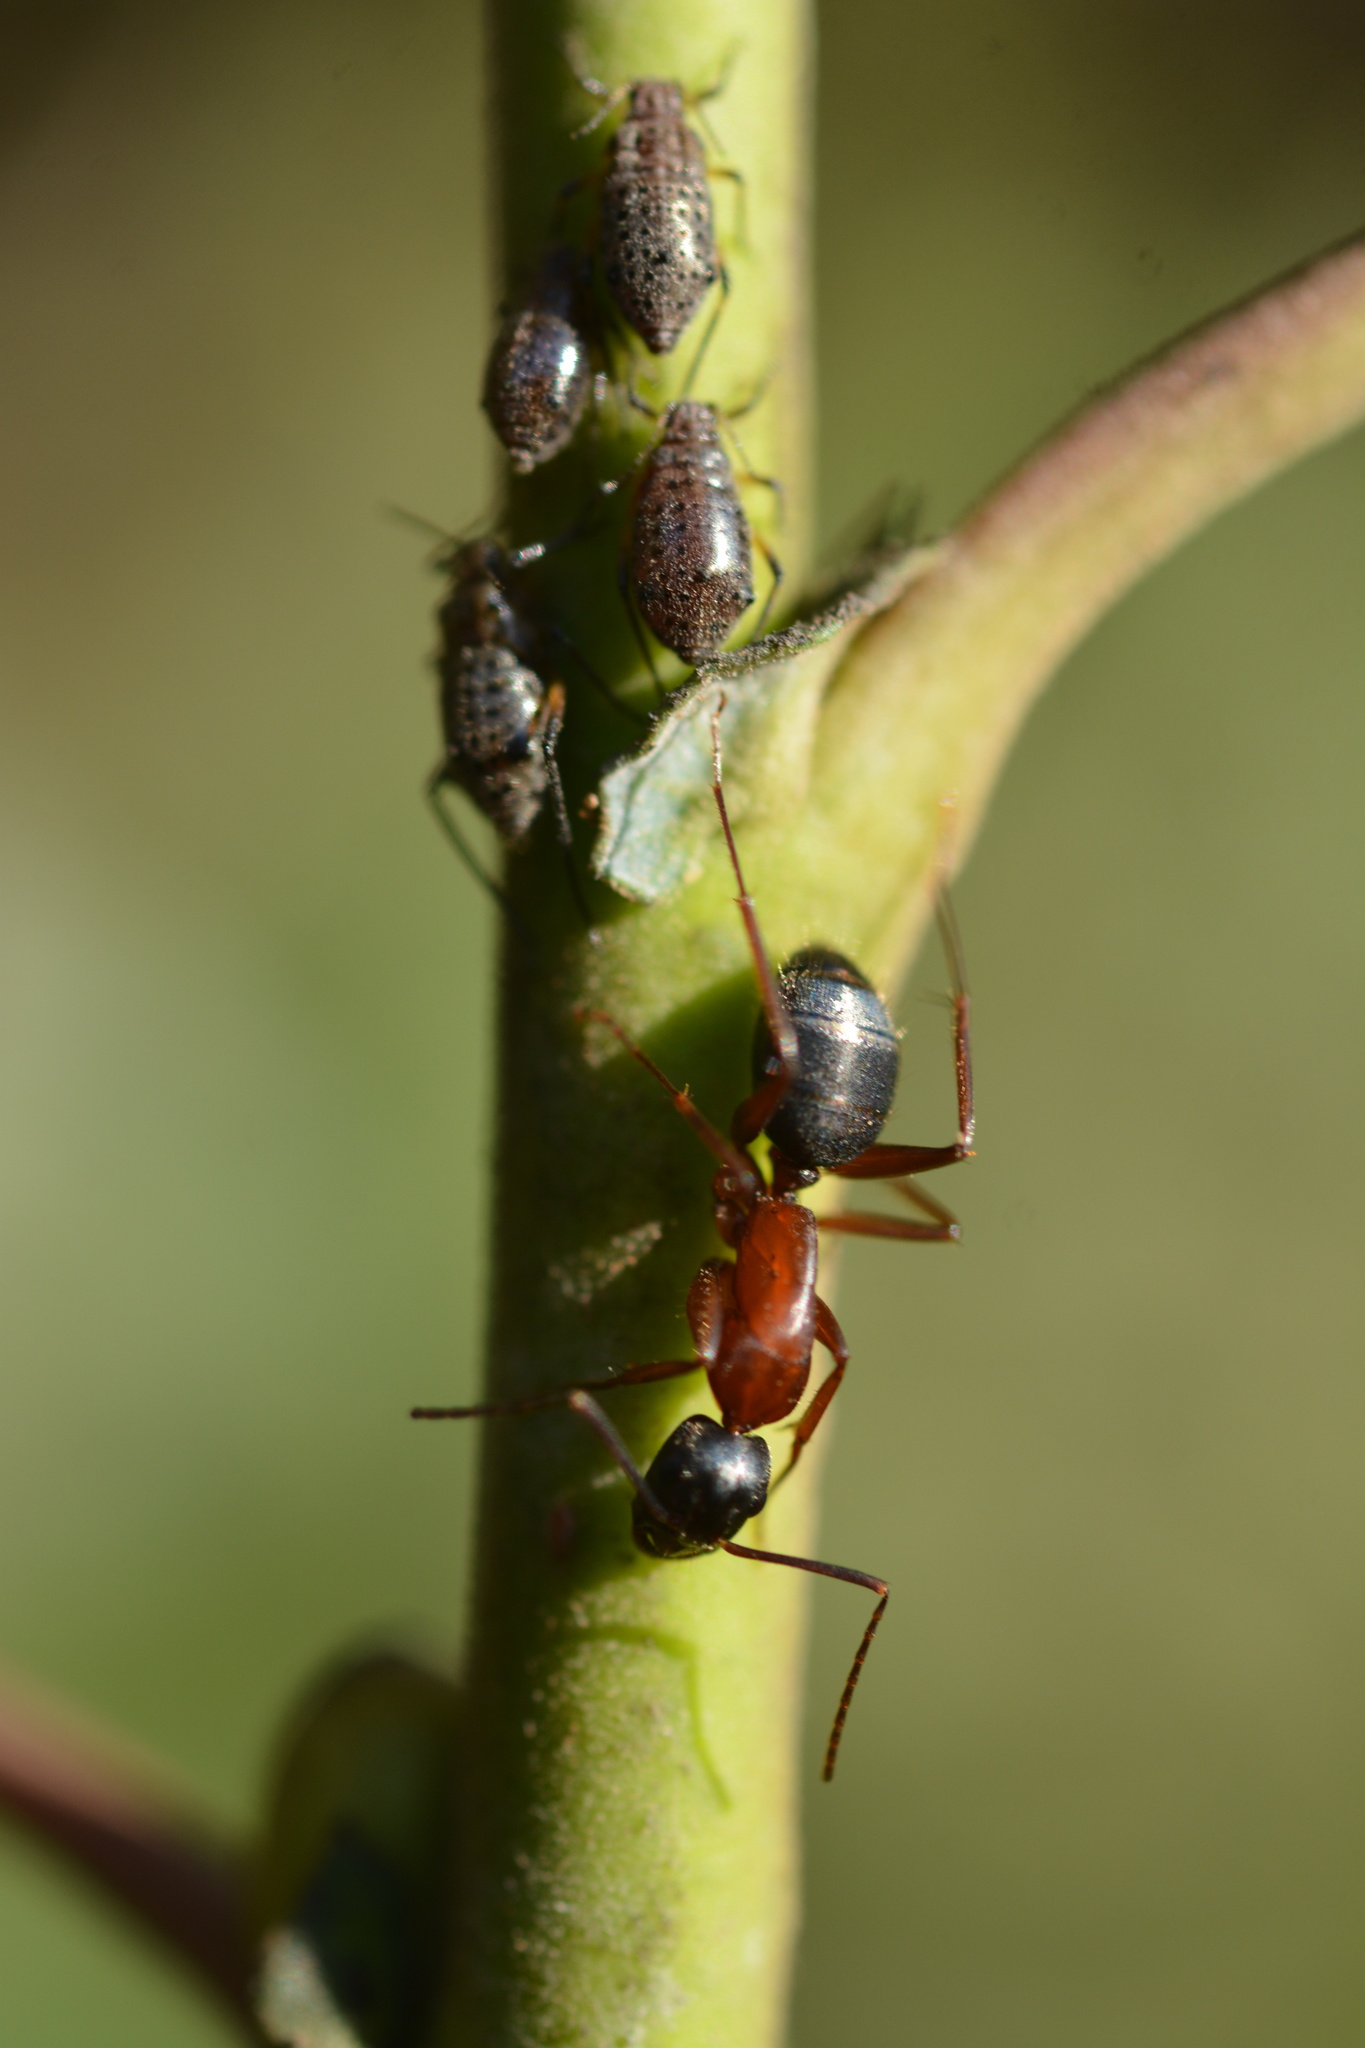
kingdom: Animalia
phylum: Arthropoda
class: Insecta
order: Hymenoptera
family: Formicidae
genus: Camponotus
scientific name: Camponotus vicinus
